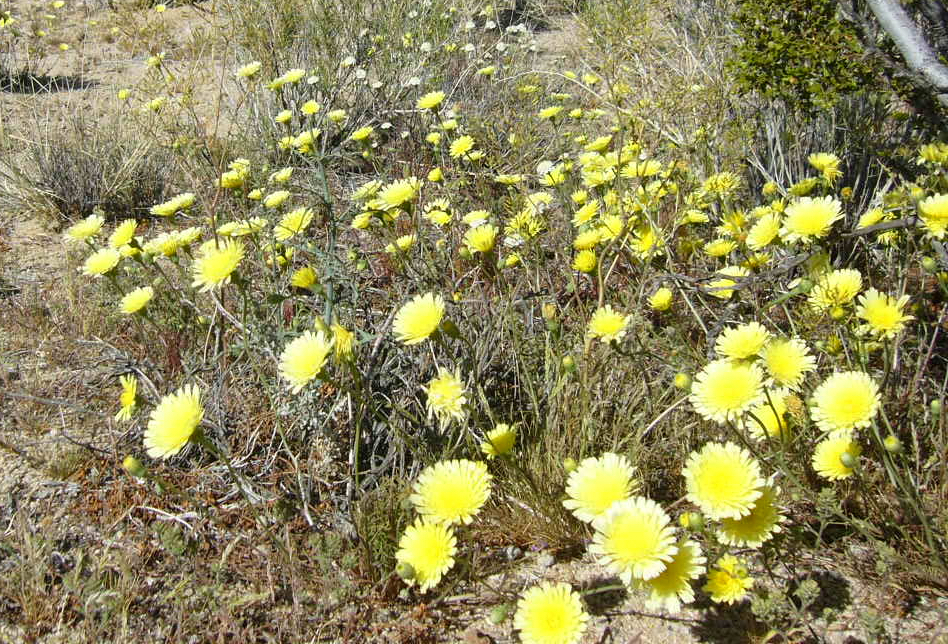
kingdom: Plantae
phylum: Tracheophyta
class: Magnoliopsida
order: Asterales
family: Asteraceae
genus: Malacothrix
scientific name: Malacothrix glabrata
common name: Smooth desert-dandelion
